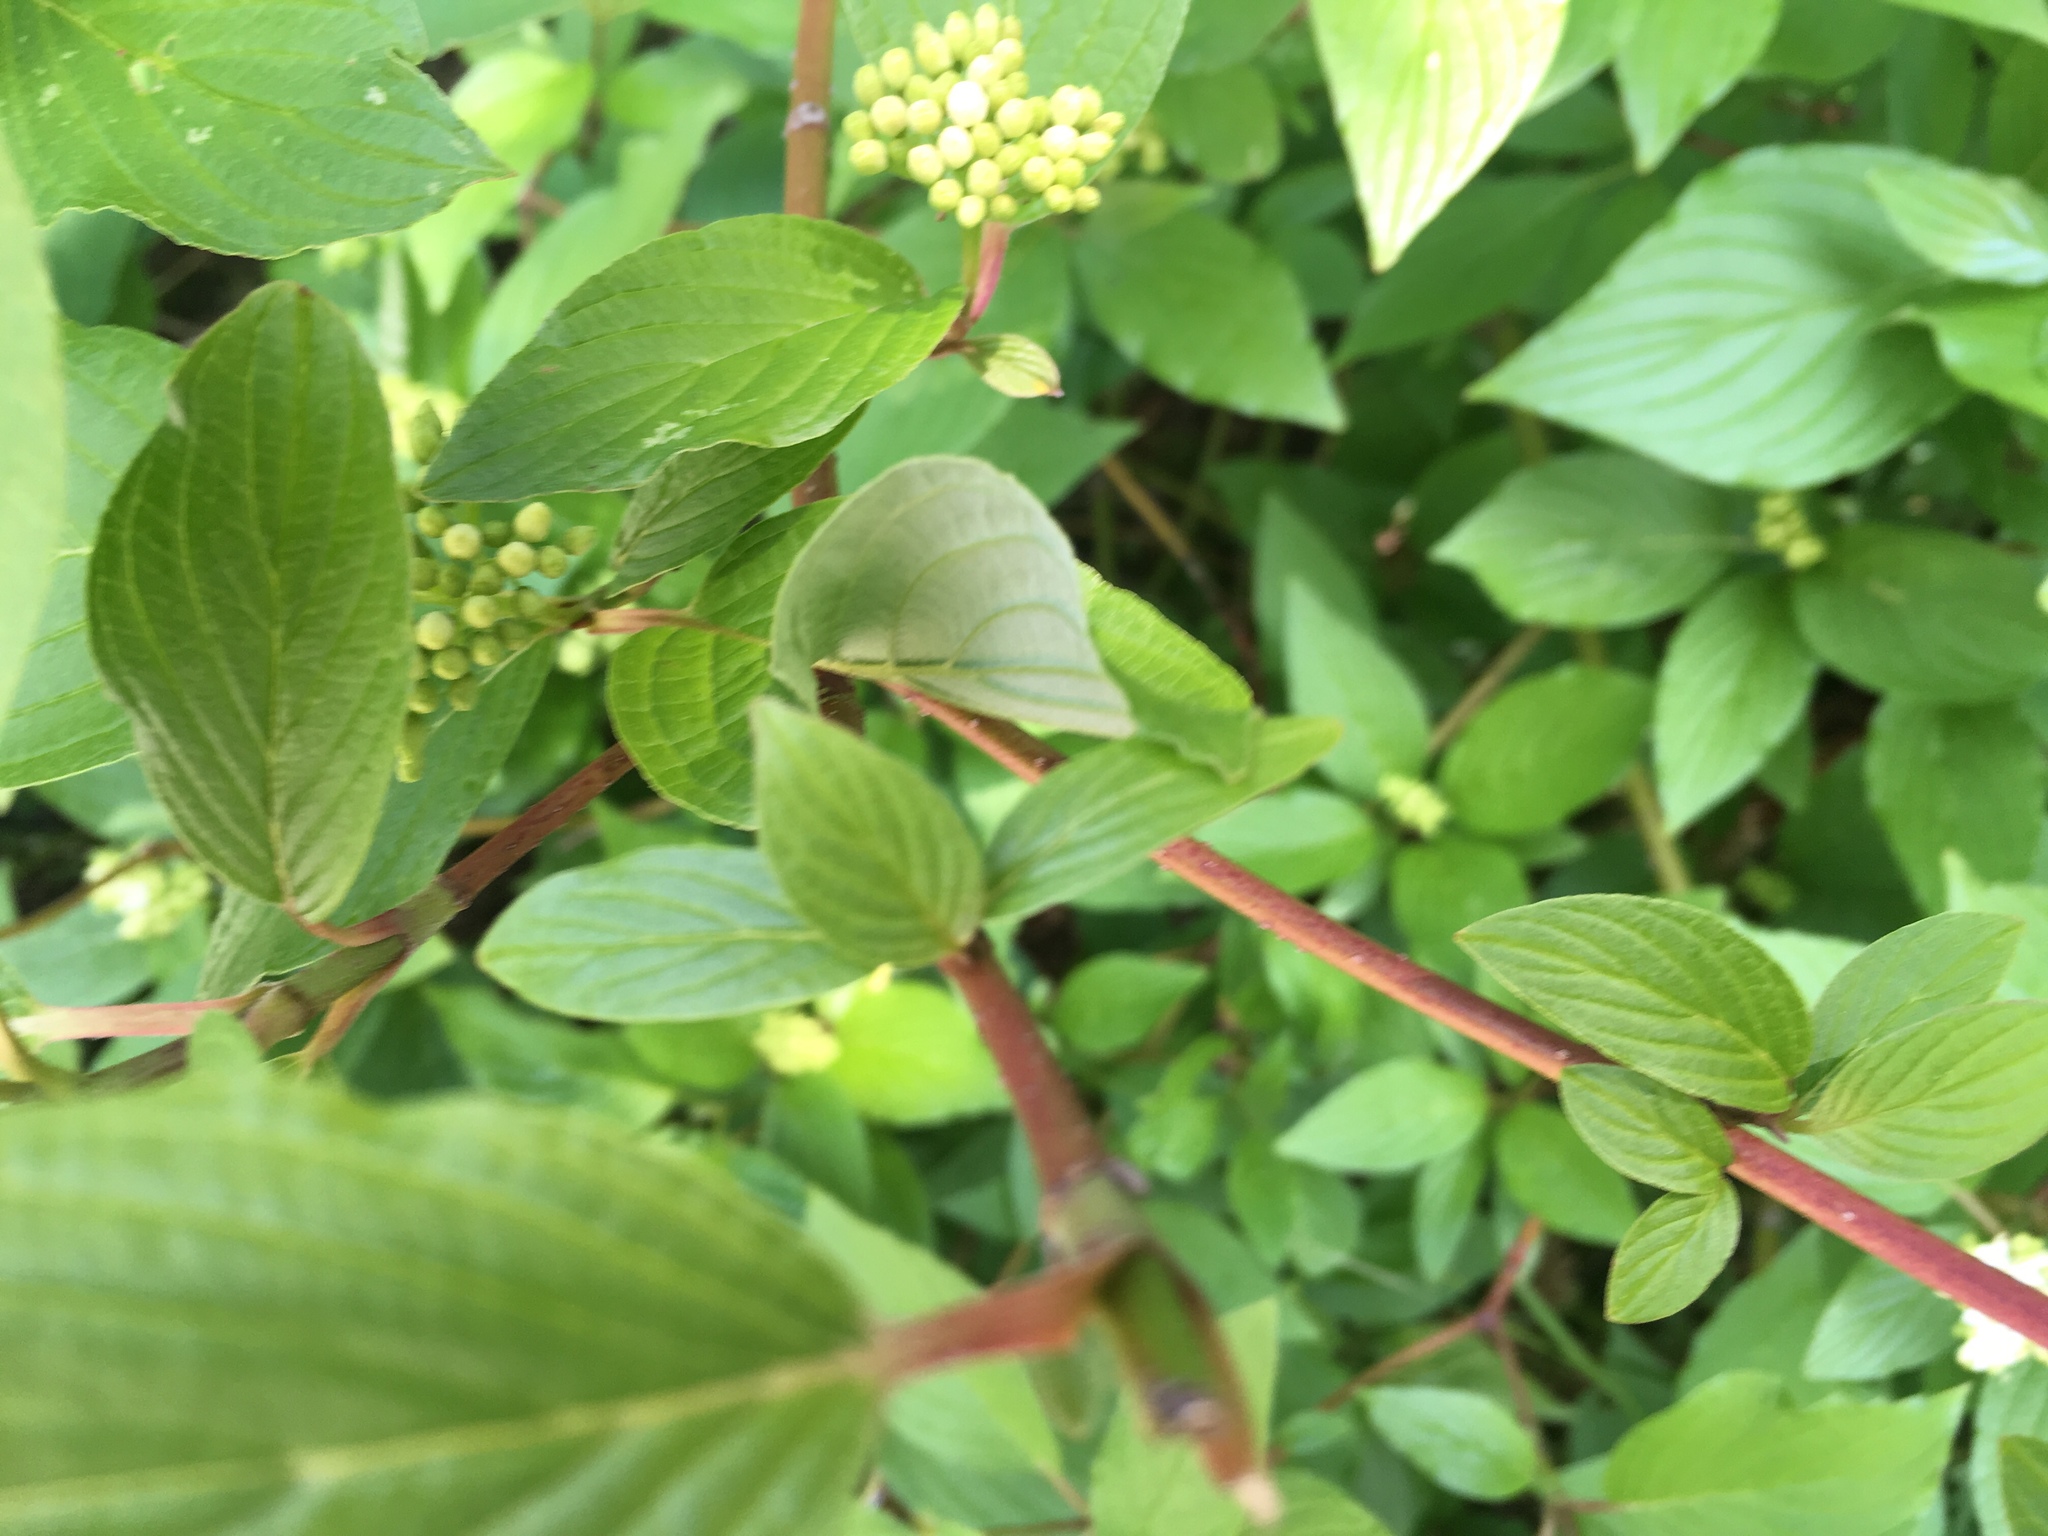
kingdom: Plantae
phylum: Tracheophyta
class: Magnoliopsida
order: Cornales
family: Cornaceae
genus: Cornus
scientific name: Cornus sericea
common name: Red-osier dogwood
